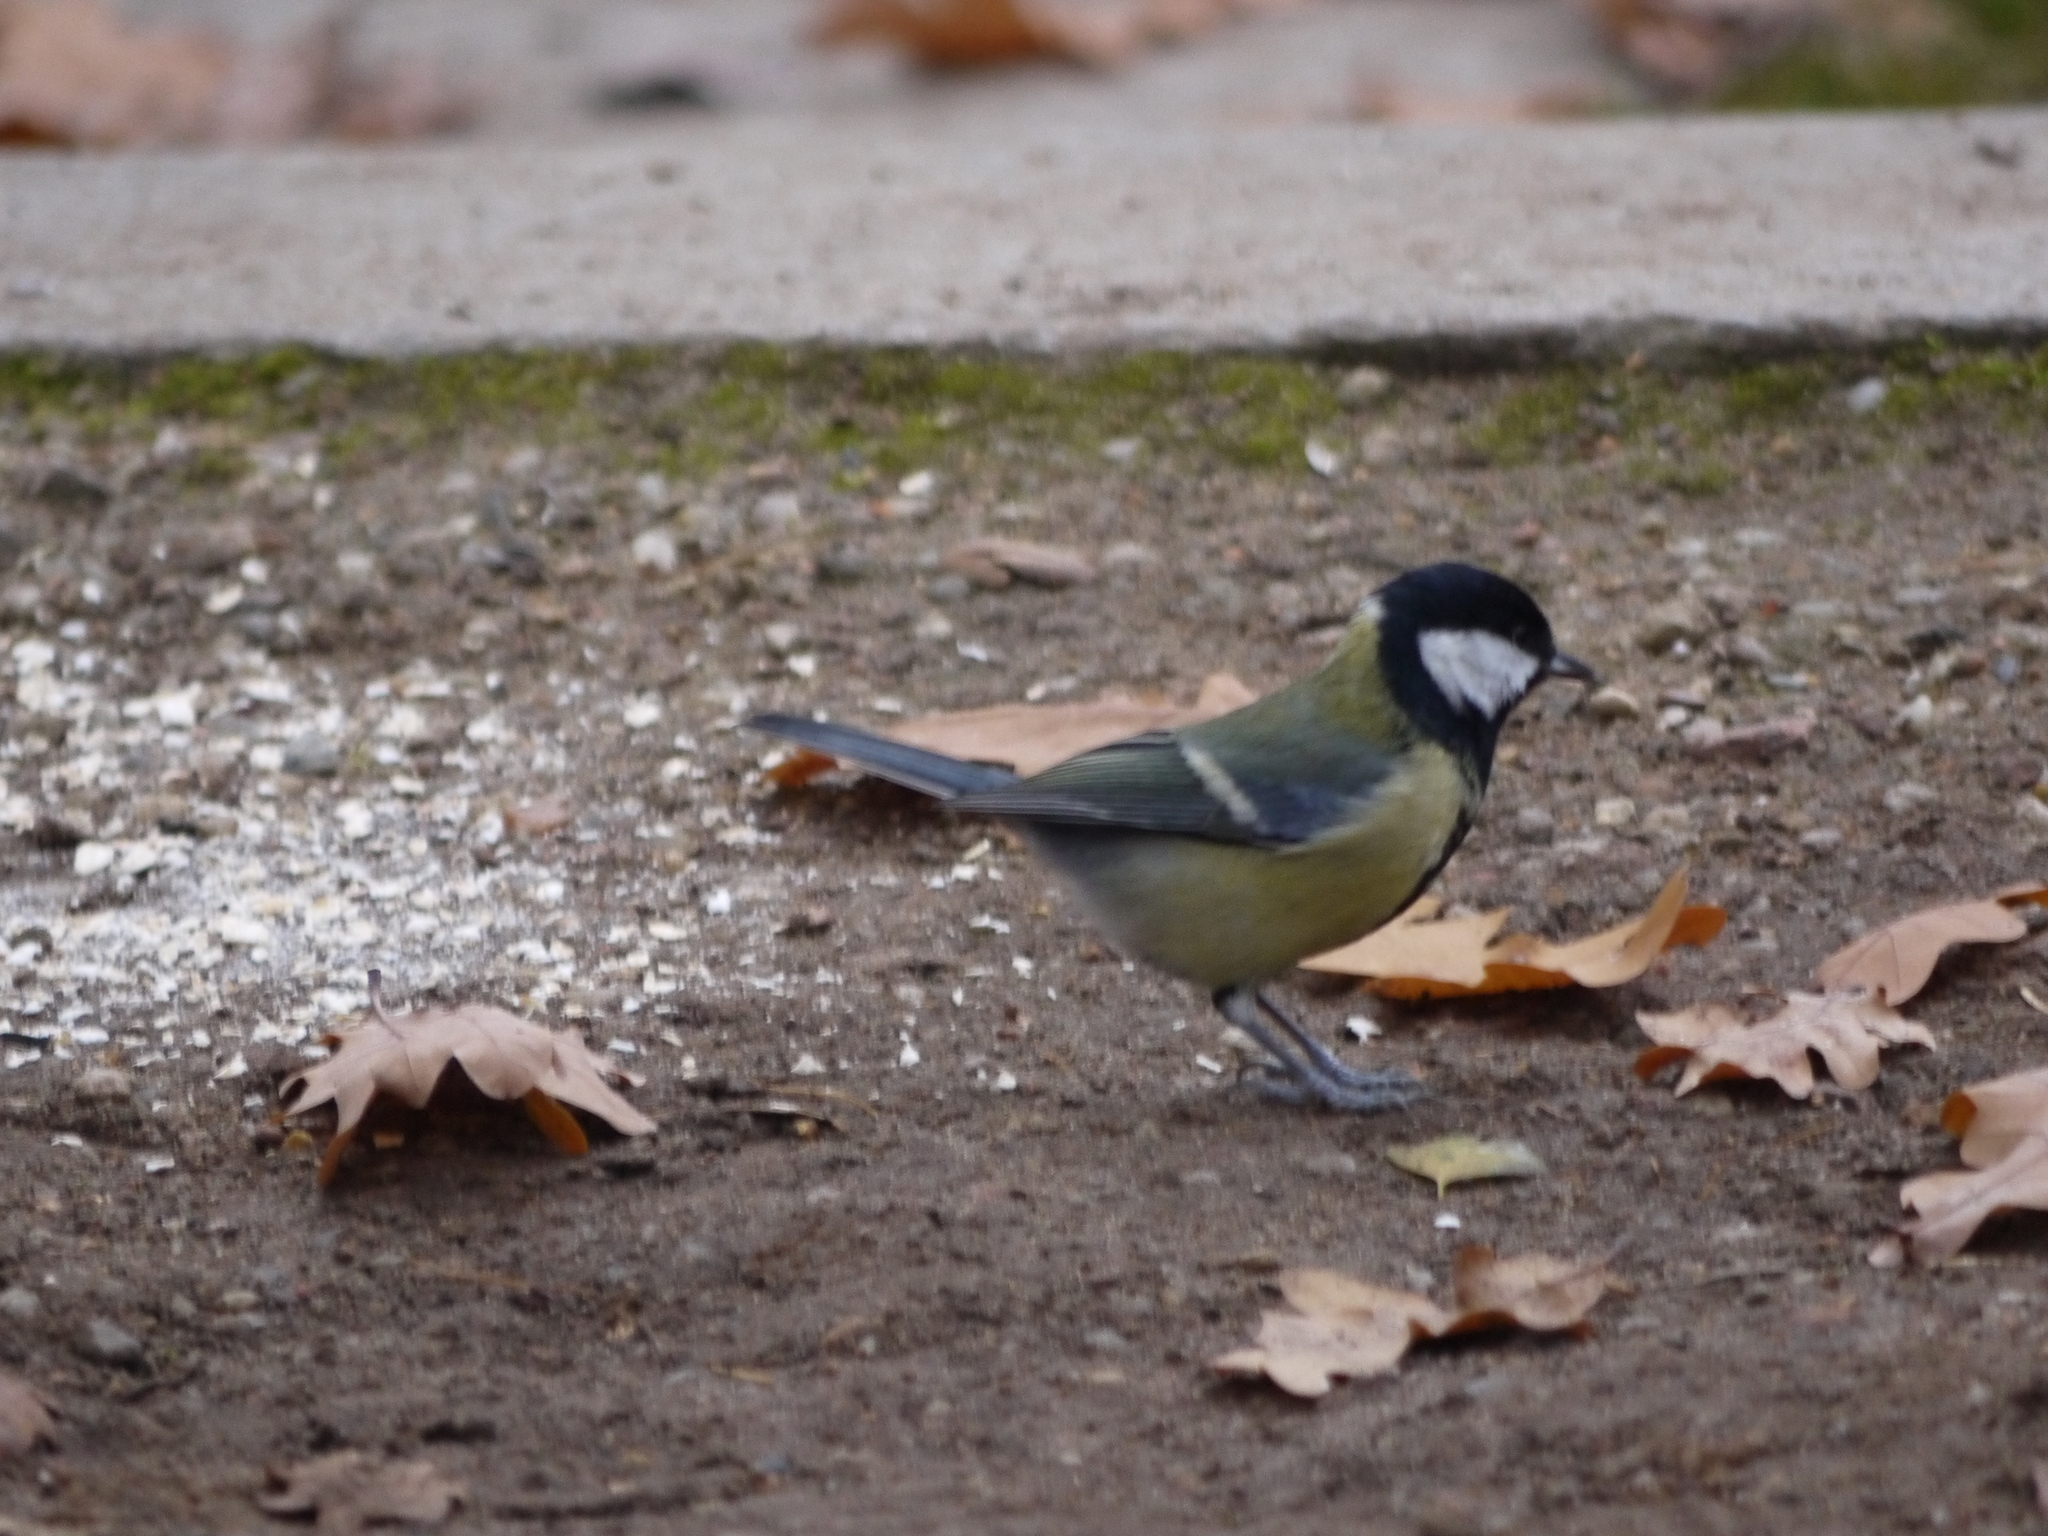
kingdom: Animalia
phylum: Chordata
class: Aves
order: Passeriformes
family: Paridae
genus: Parus
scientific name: Parus major
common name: Great tit
